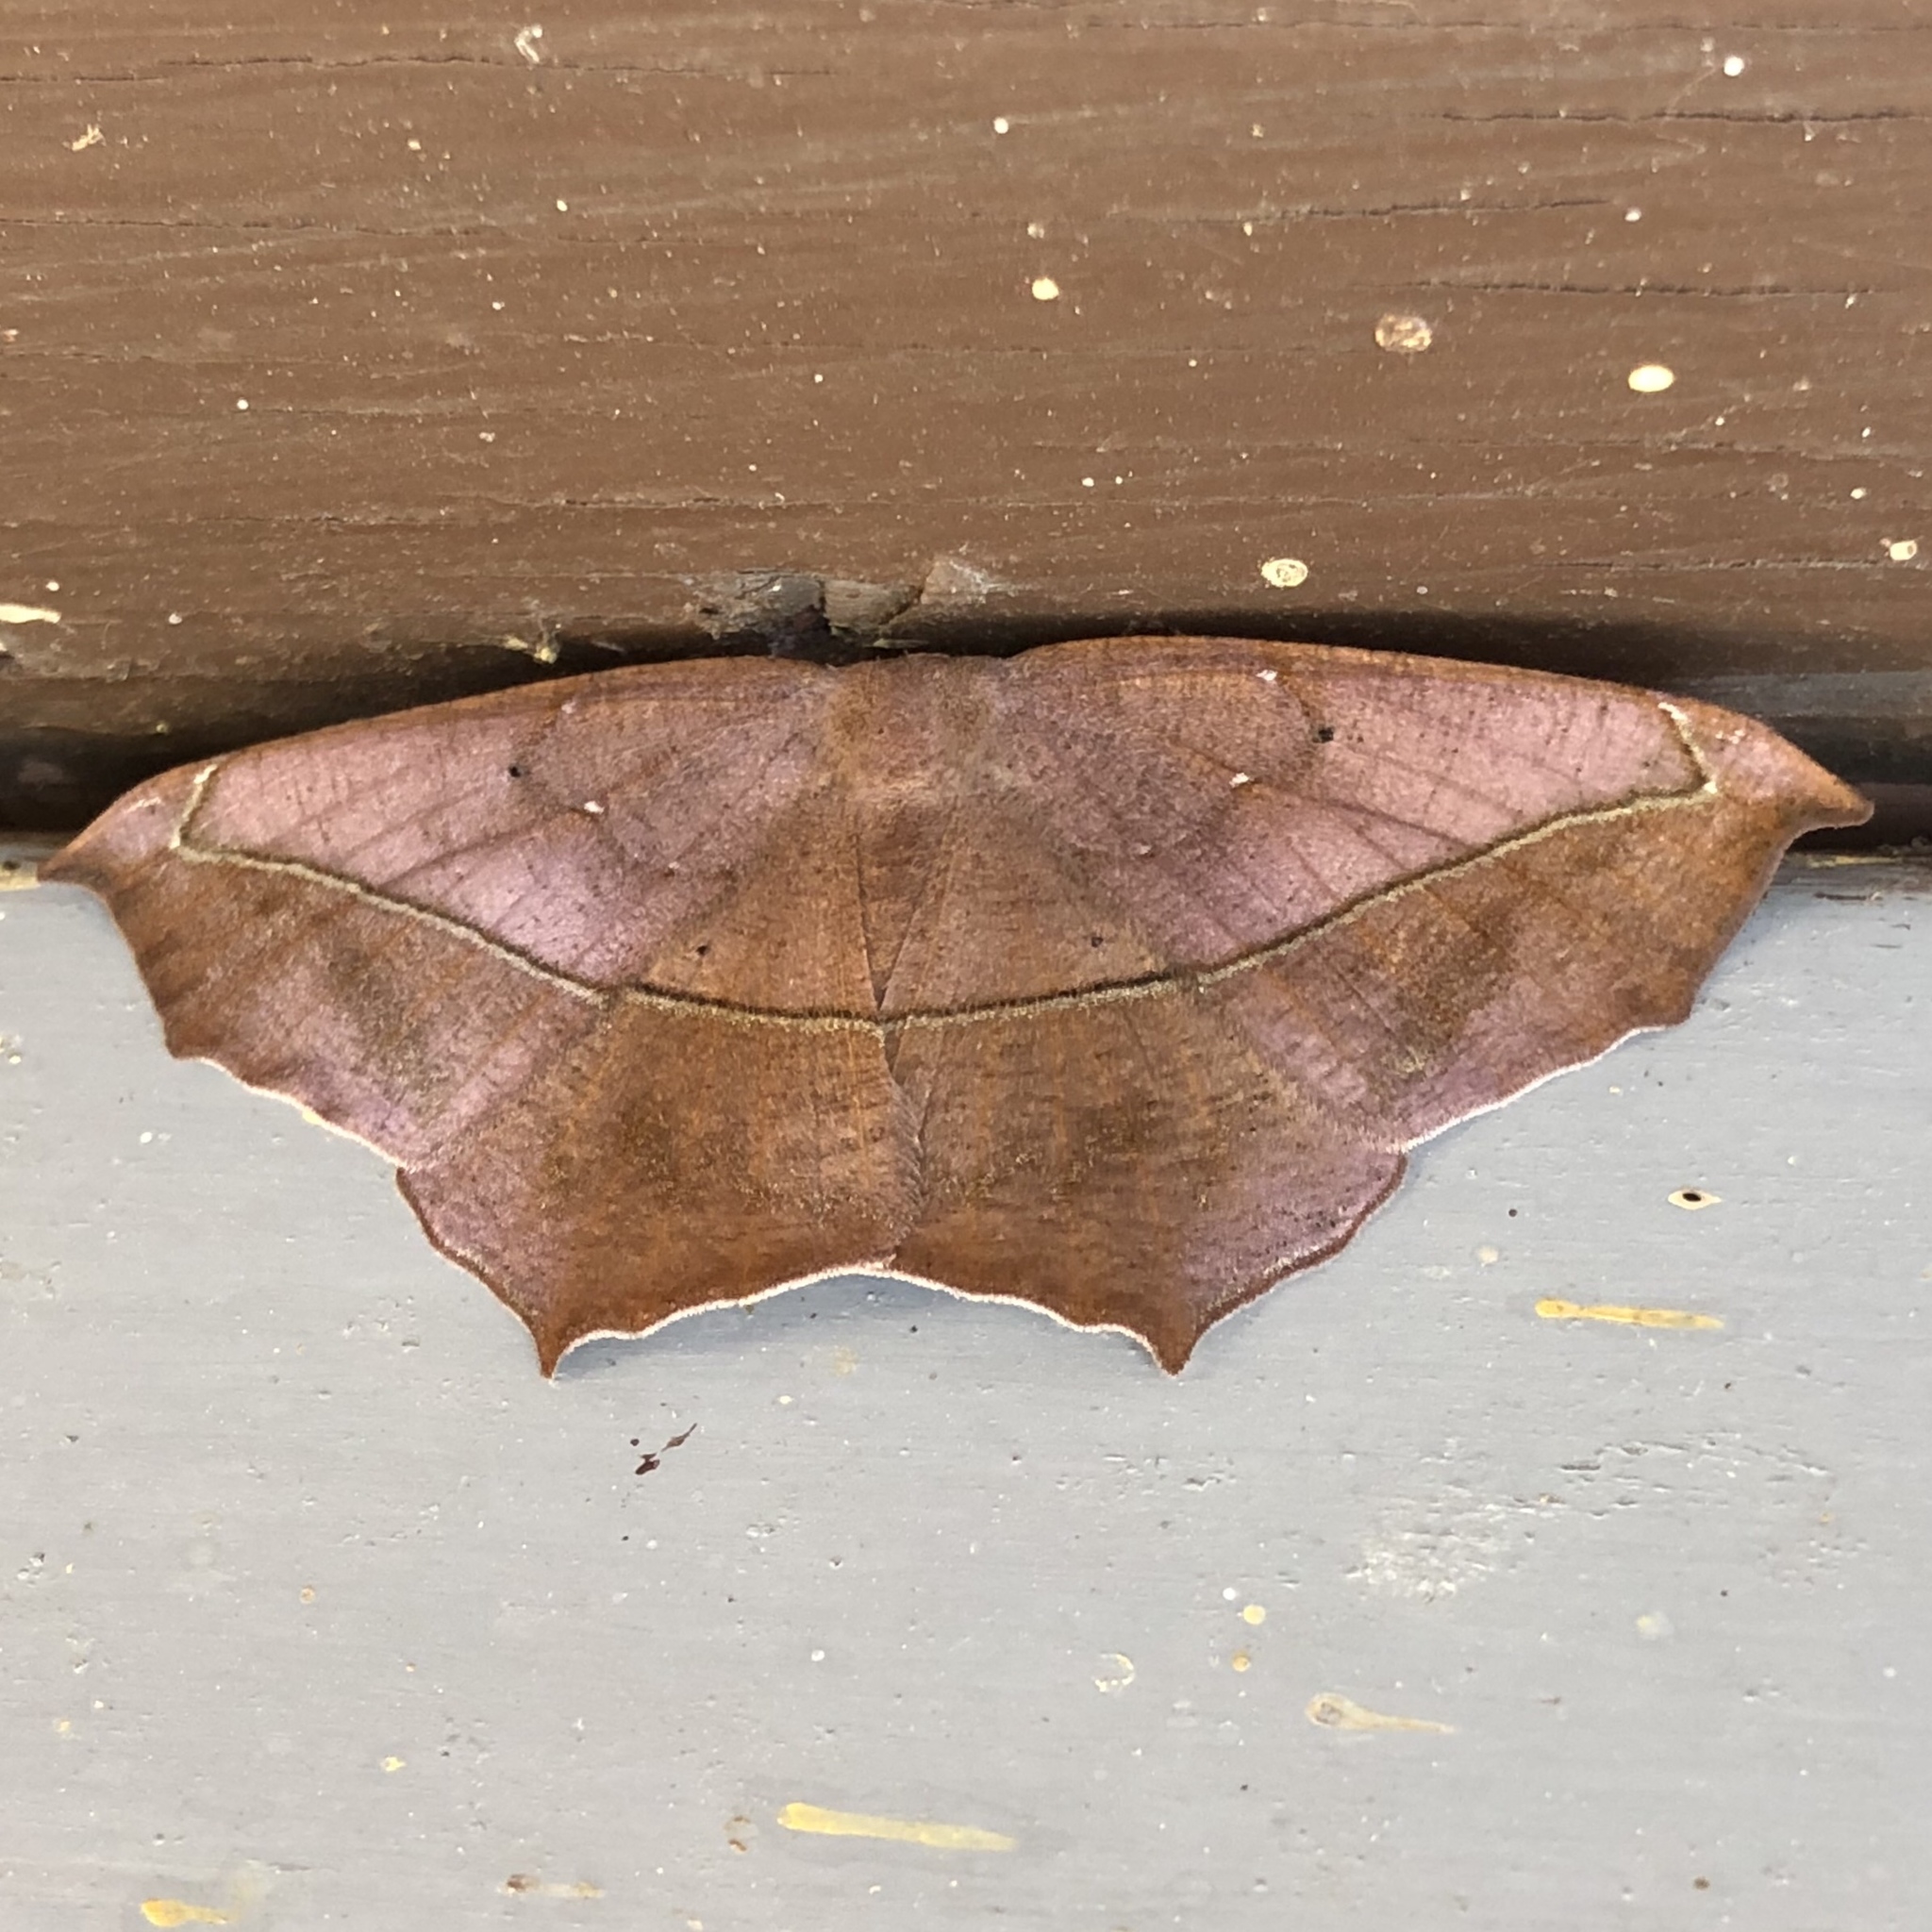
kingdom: Animalia
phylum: Arthropoda
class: Insecta
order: Lepidoptera
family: Geometridae
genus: Prochoerodes
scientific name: Prochoerodes lineola
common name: Large maple spanworm
